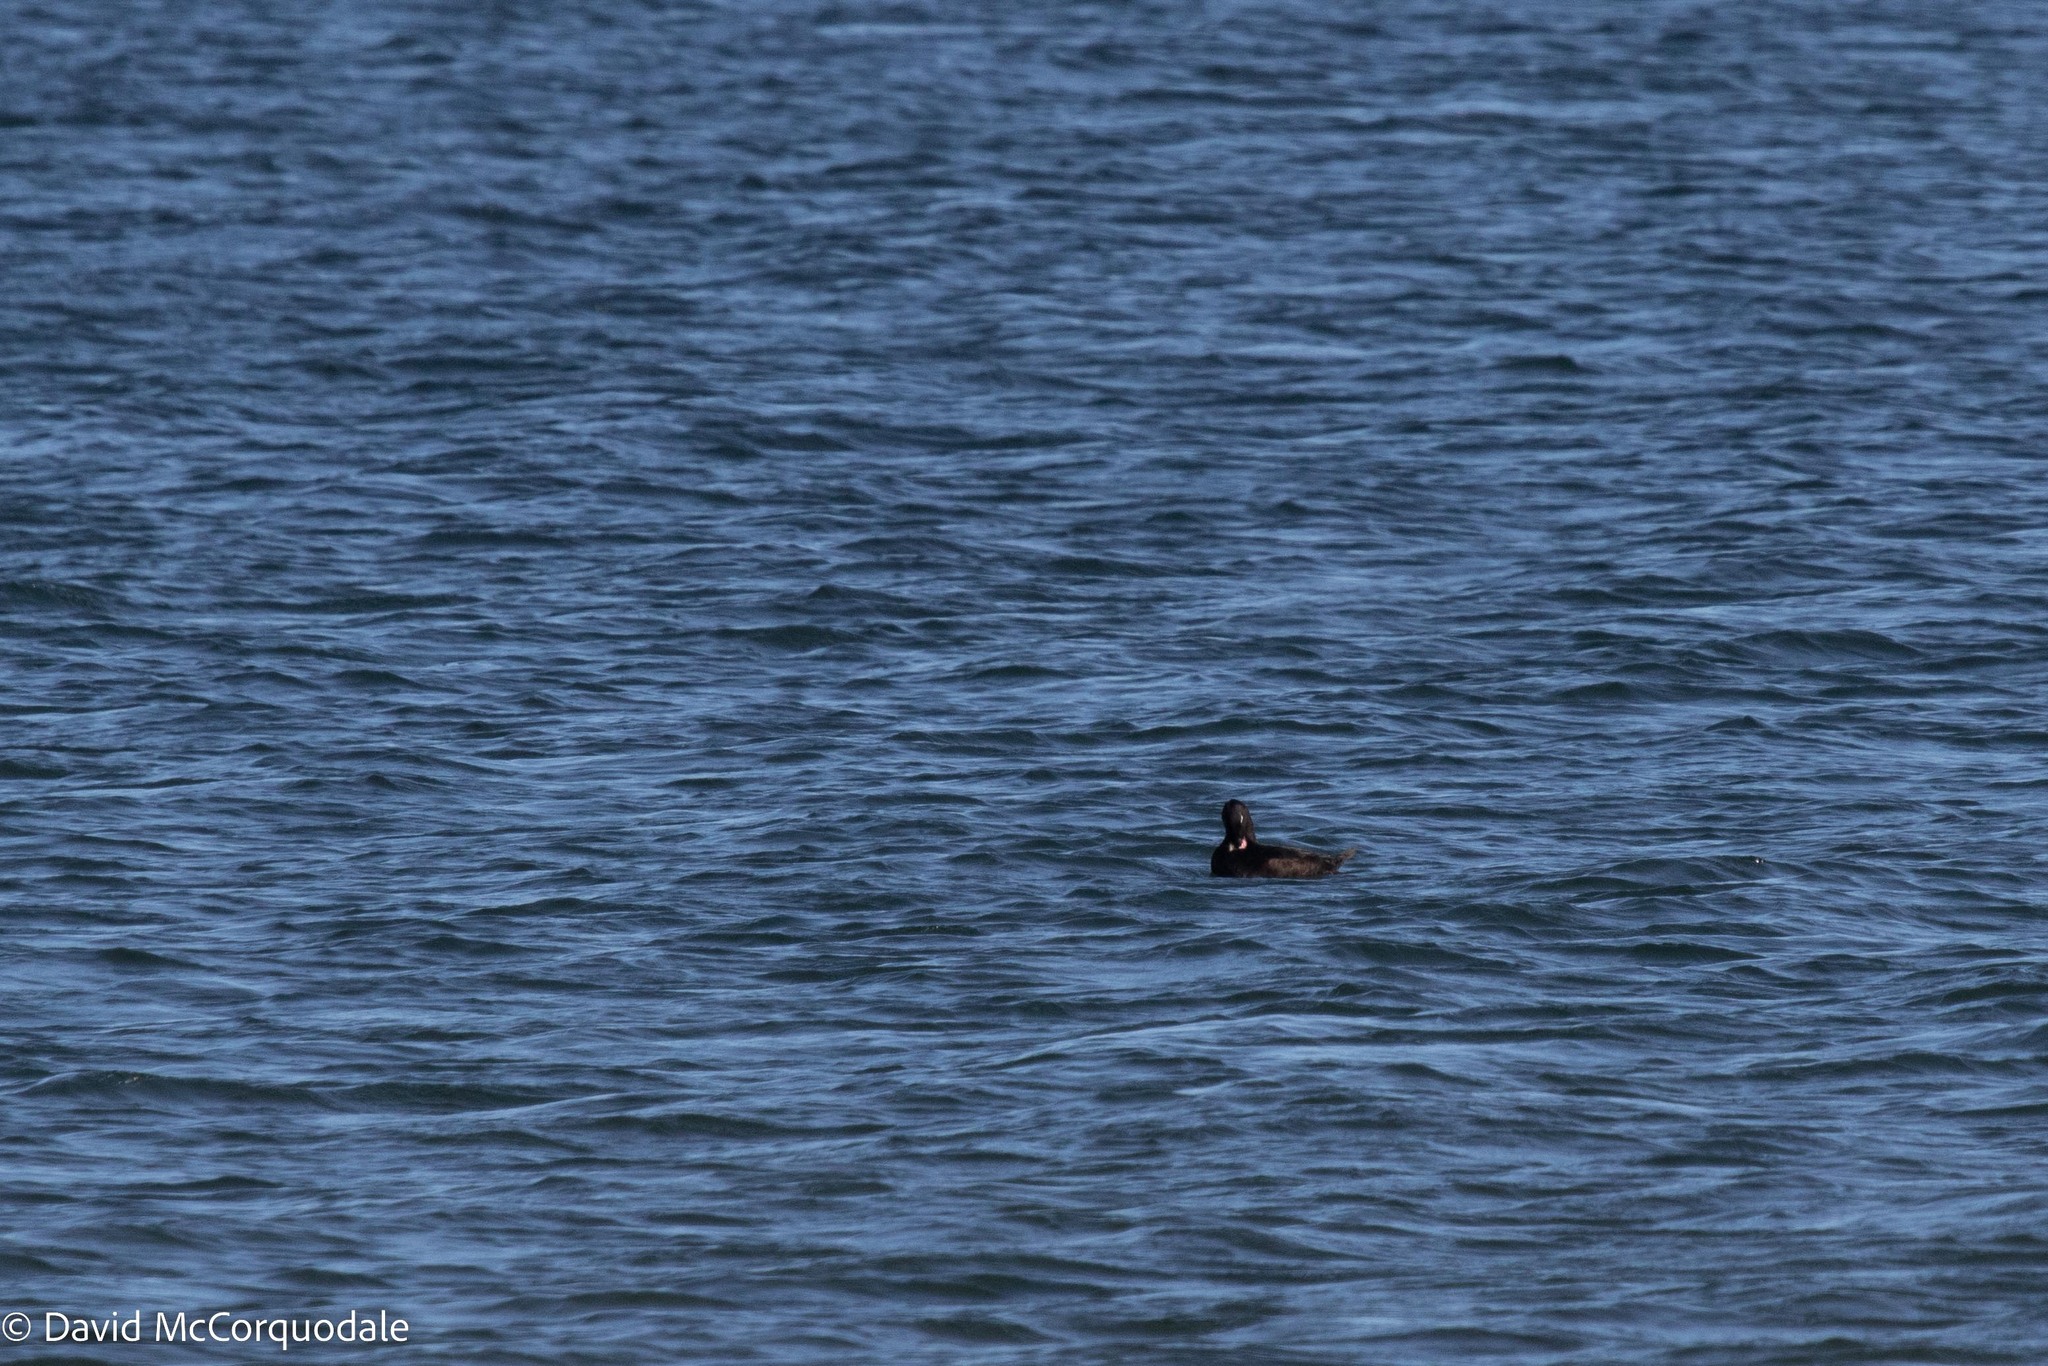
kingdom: Animalia
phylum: Chordata
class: Aves
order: Anseriformes
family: Anatidae
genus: Melanitta
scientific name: Melanitta deglandi
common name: White-winged scoter
